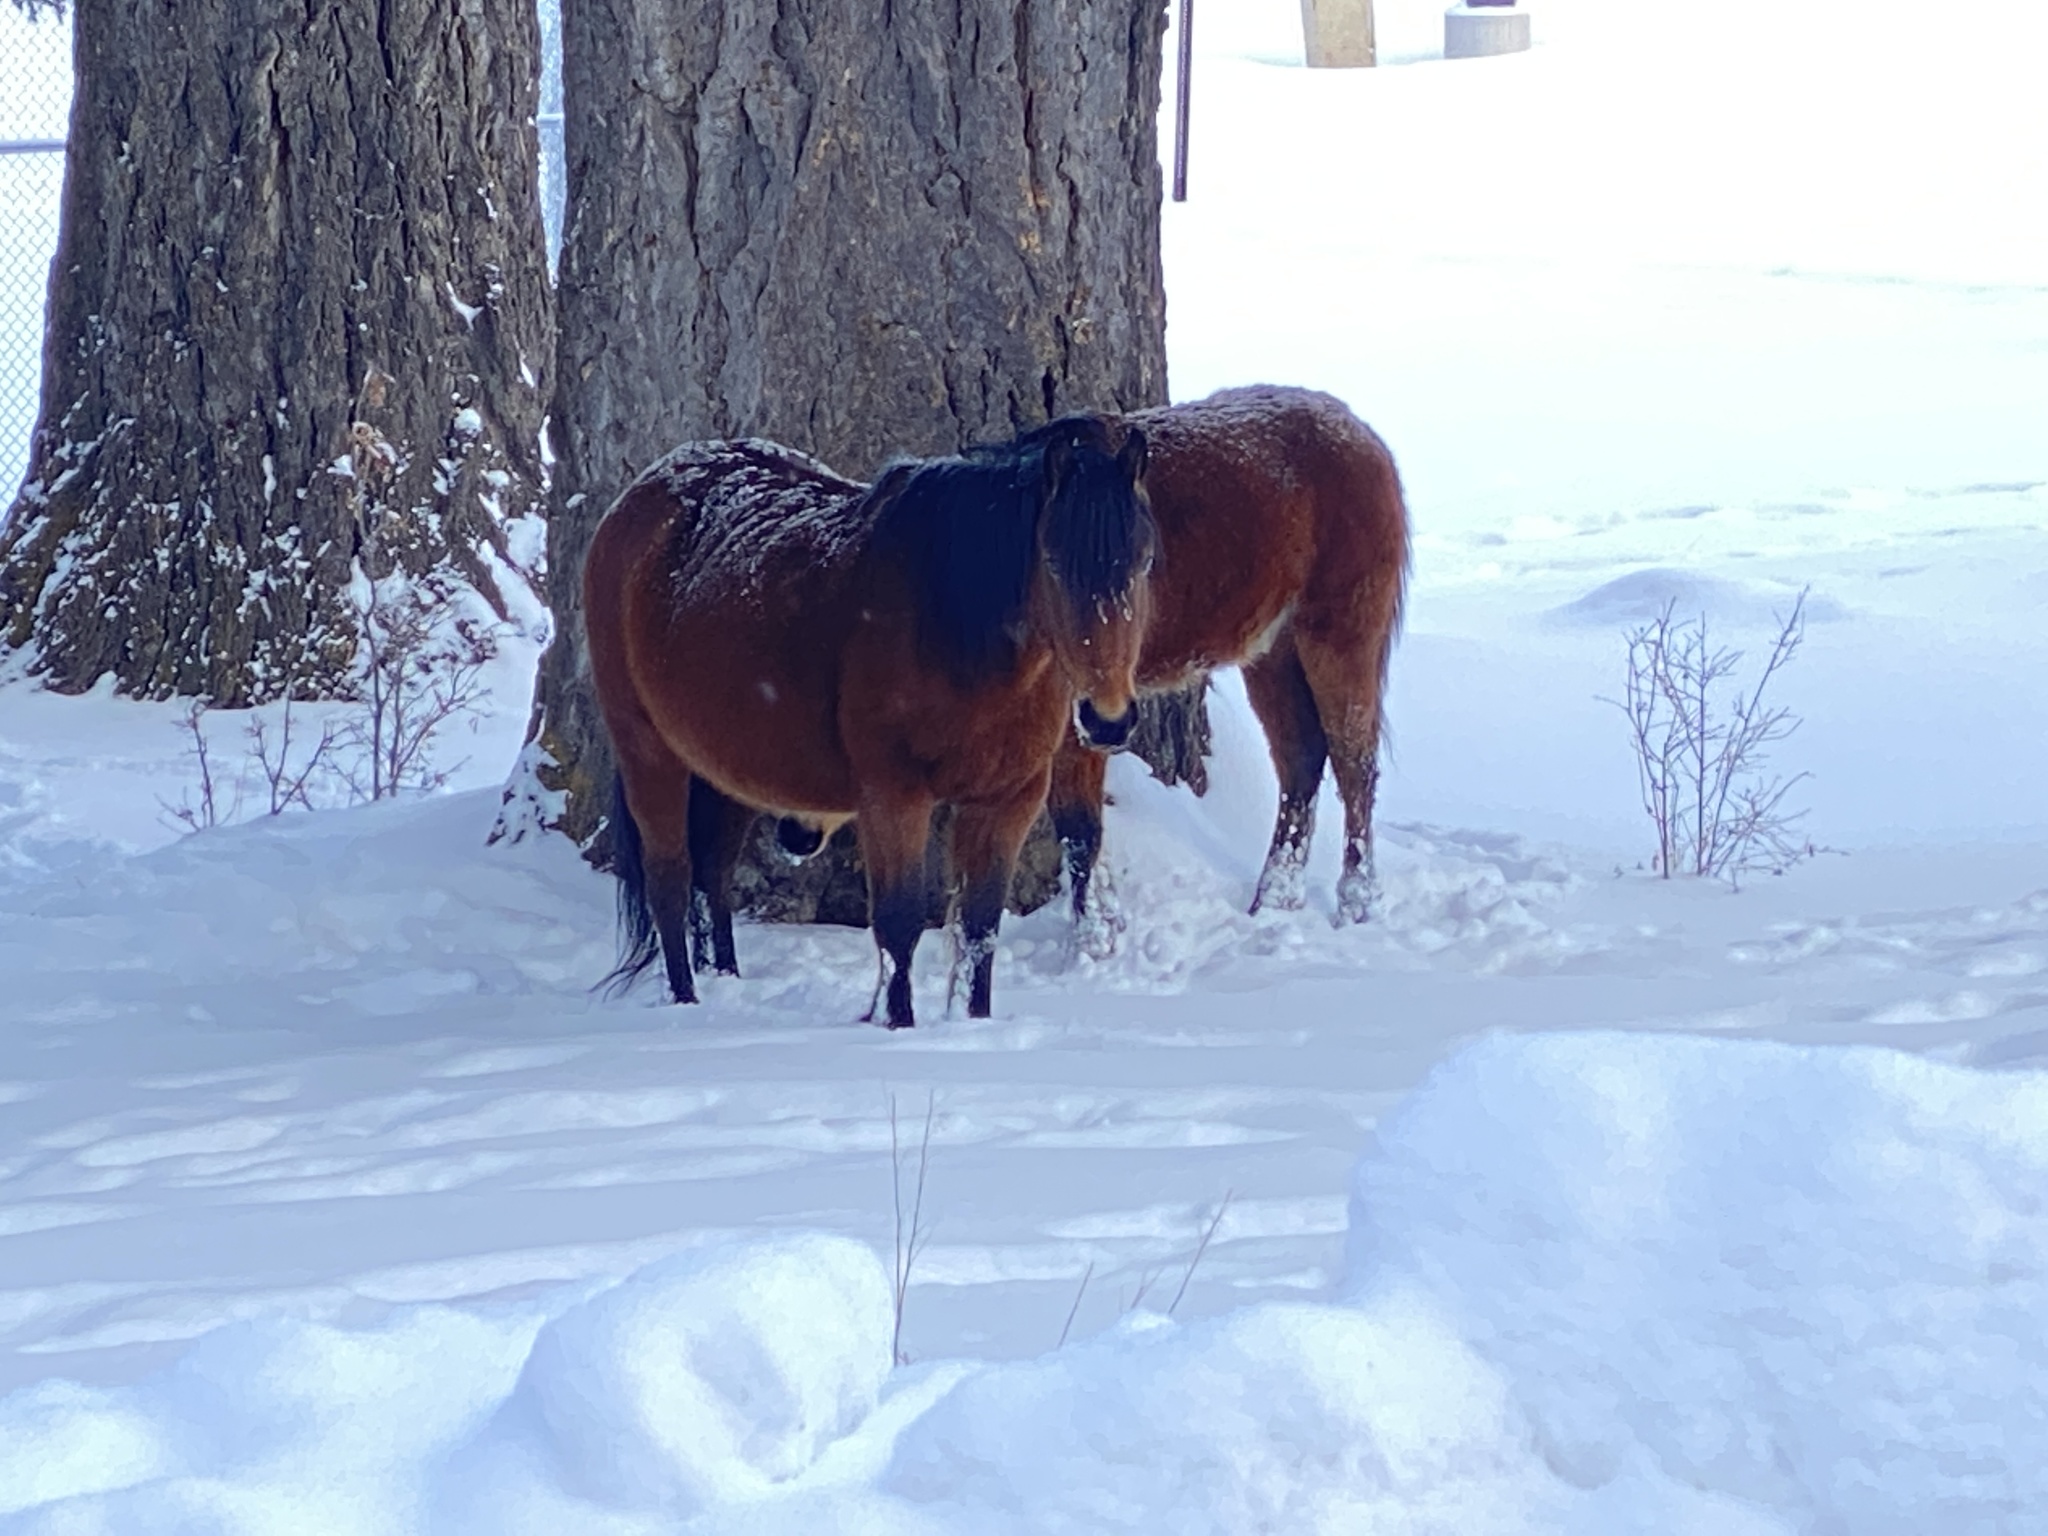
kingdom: Animalia
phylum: Chordata
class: Mammalia
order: Perissodactyla
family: Equidae
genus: Equus
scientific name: Equus caballus
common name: Horse
